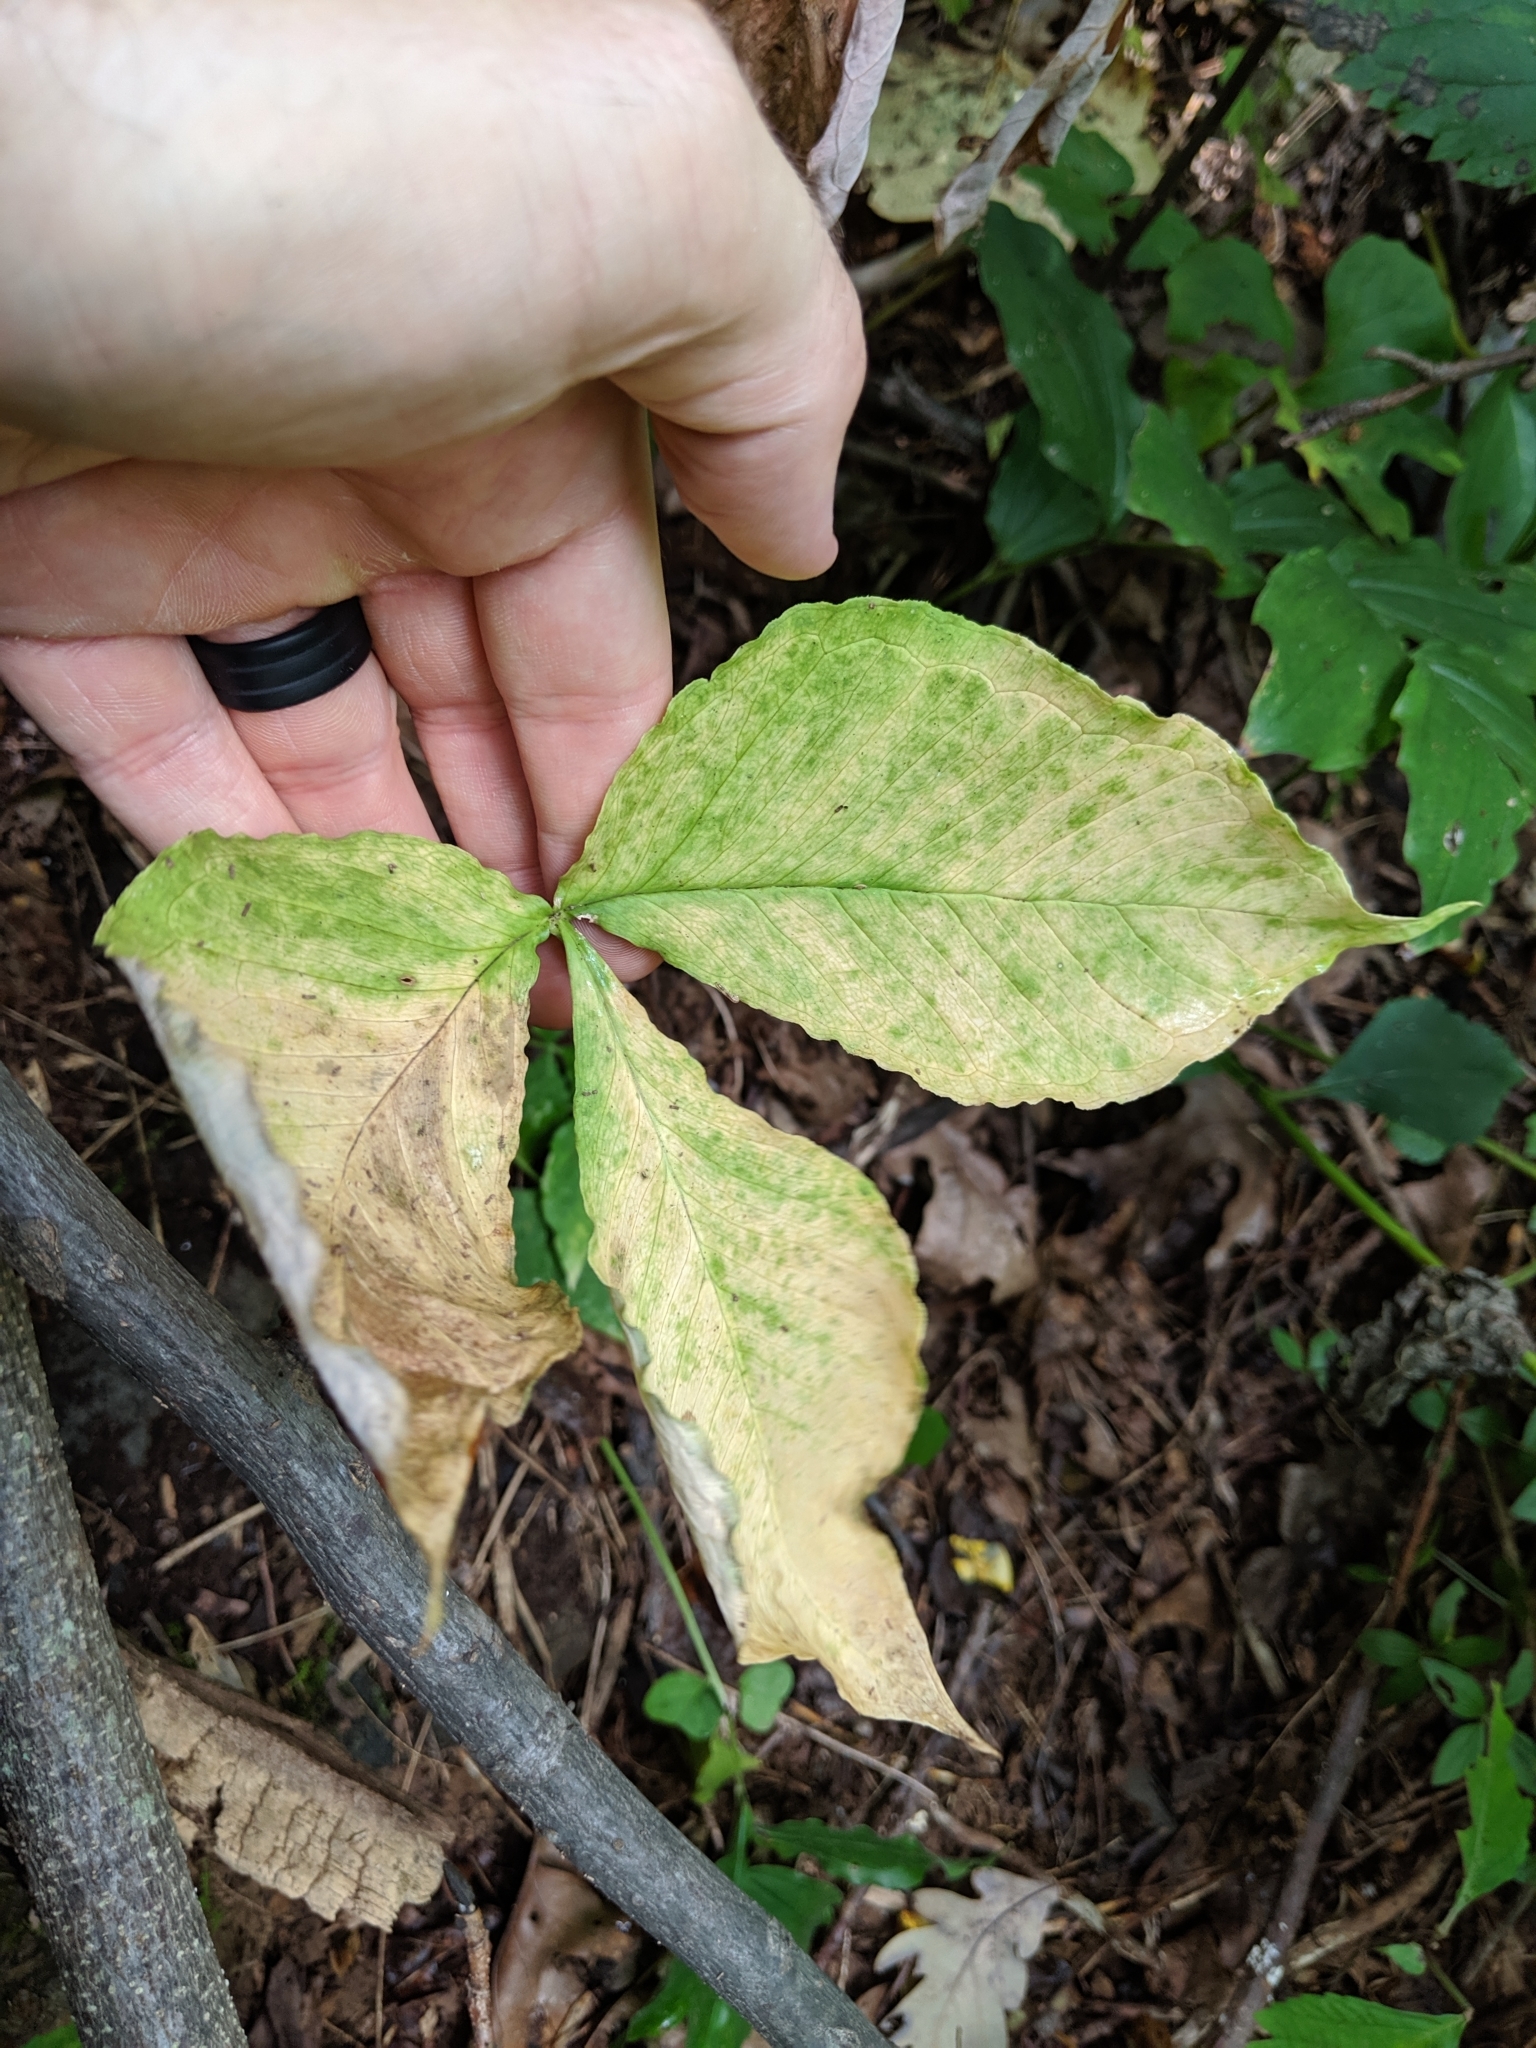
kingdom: Plantae
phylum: Tracheophyta
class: Liliopsida
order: Alismatales
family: Araceae
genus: Arisaema
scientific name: Arisaema triphyllum
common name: Jack-in-the-pulpit
